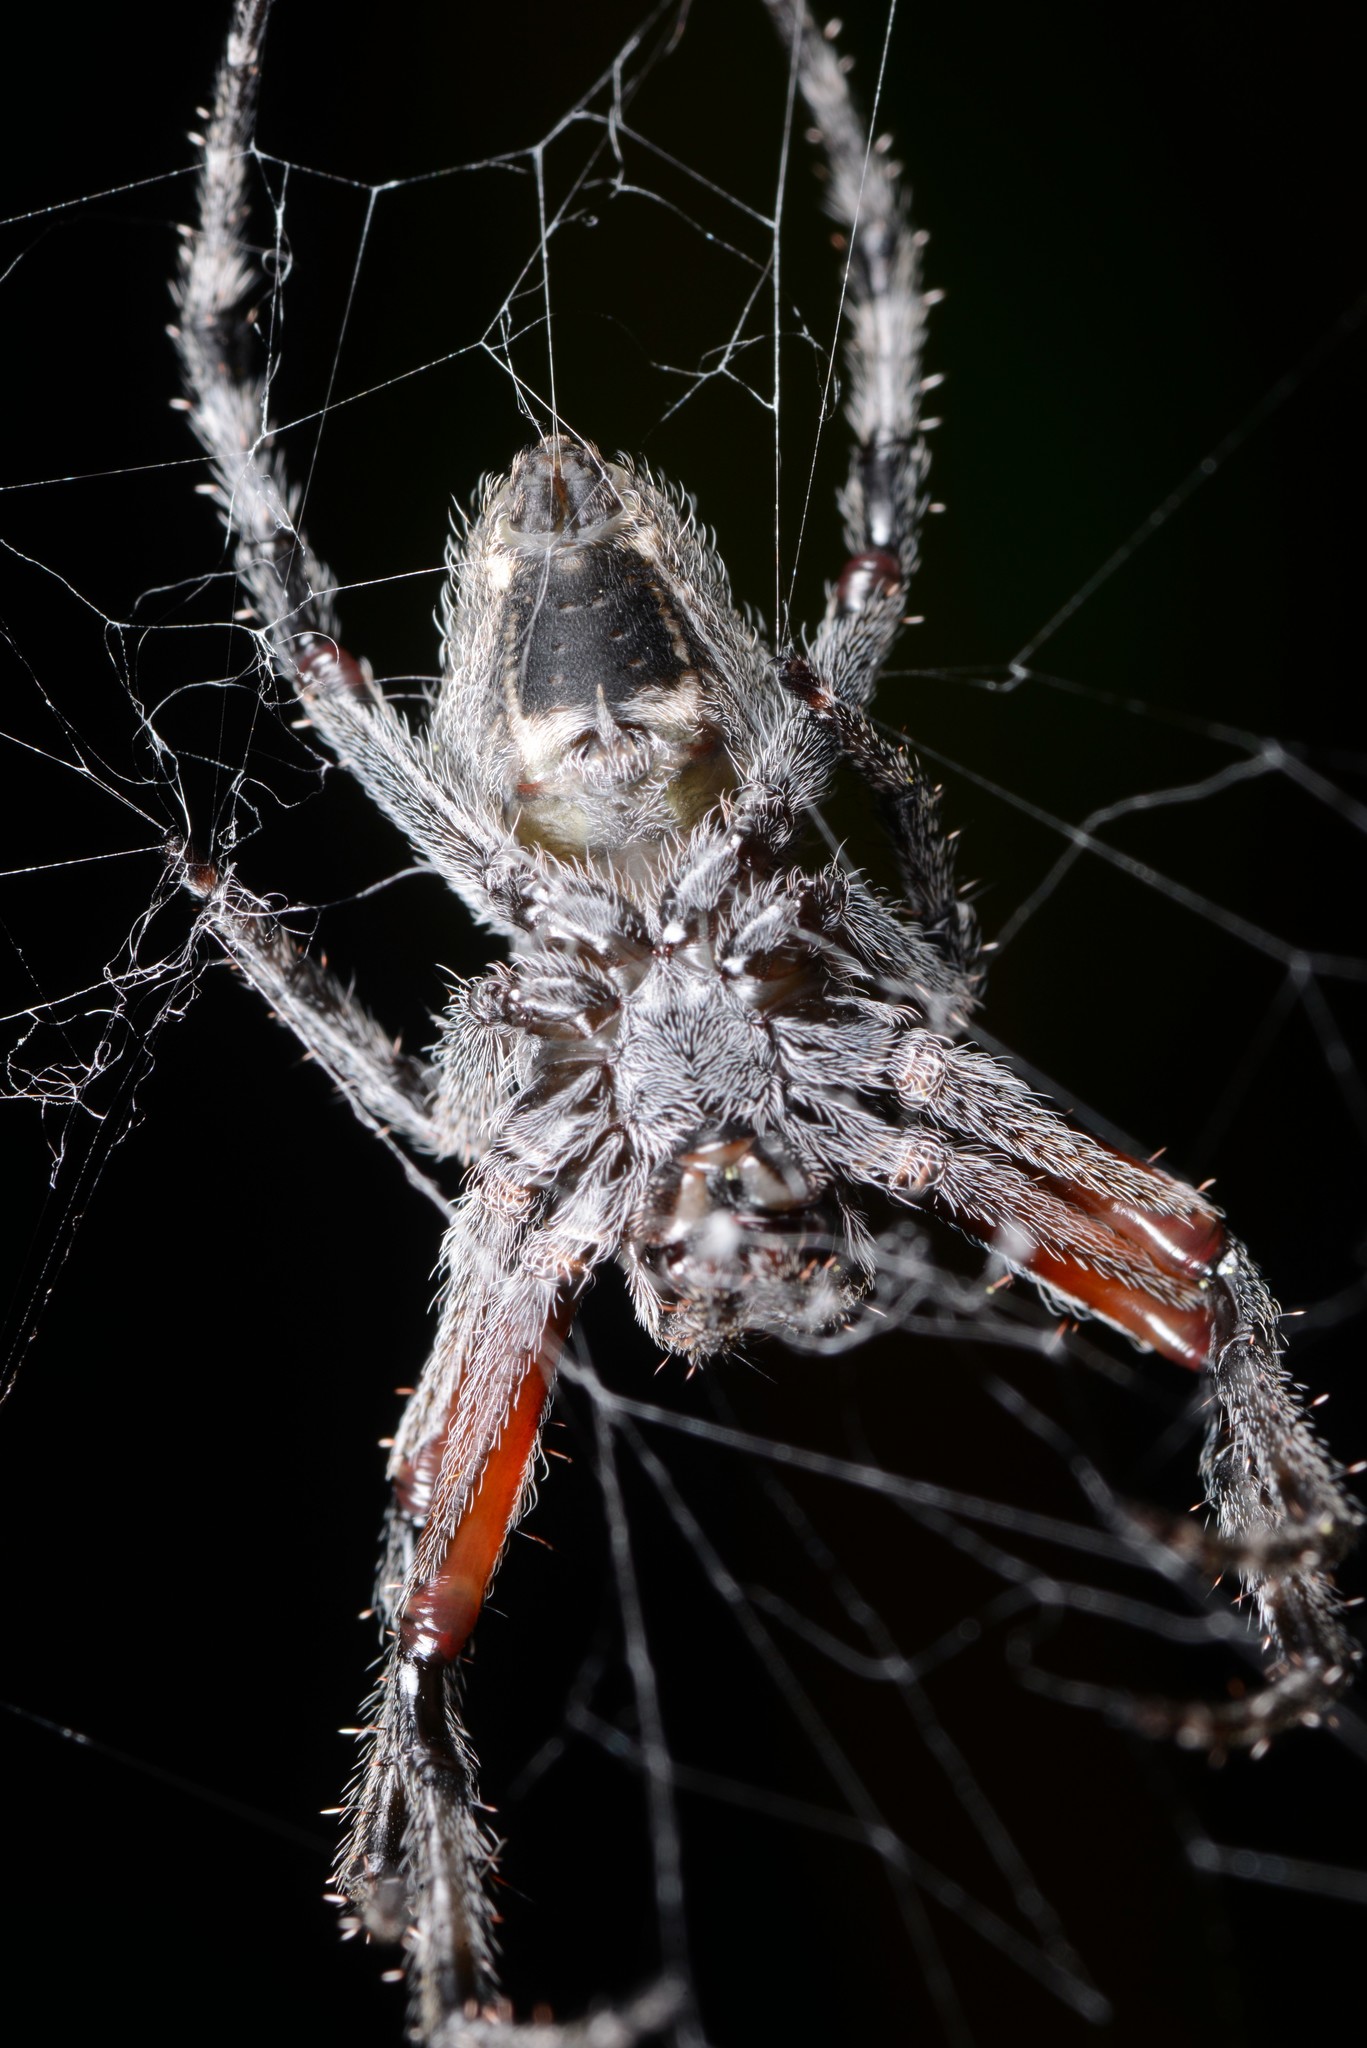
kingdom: Animalia
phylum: Arthropoda
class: Arachnida
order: Araneae
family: Araneidae
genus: Eriophora
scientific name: Eriophora pustulosa
